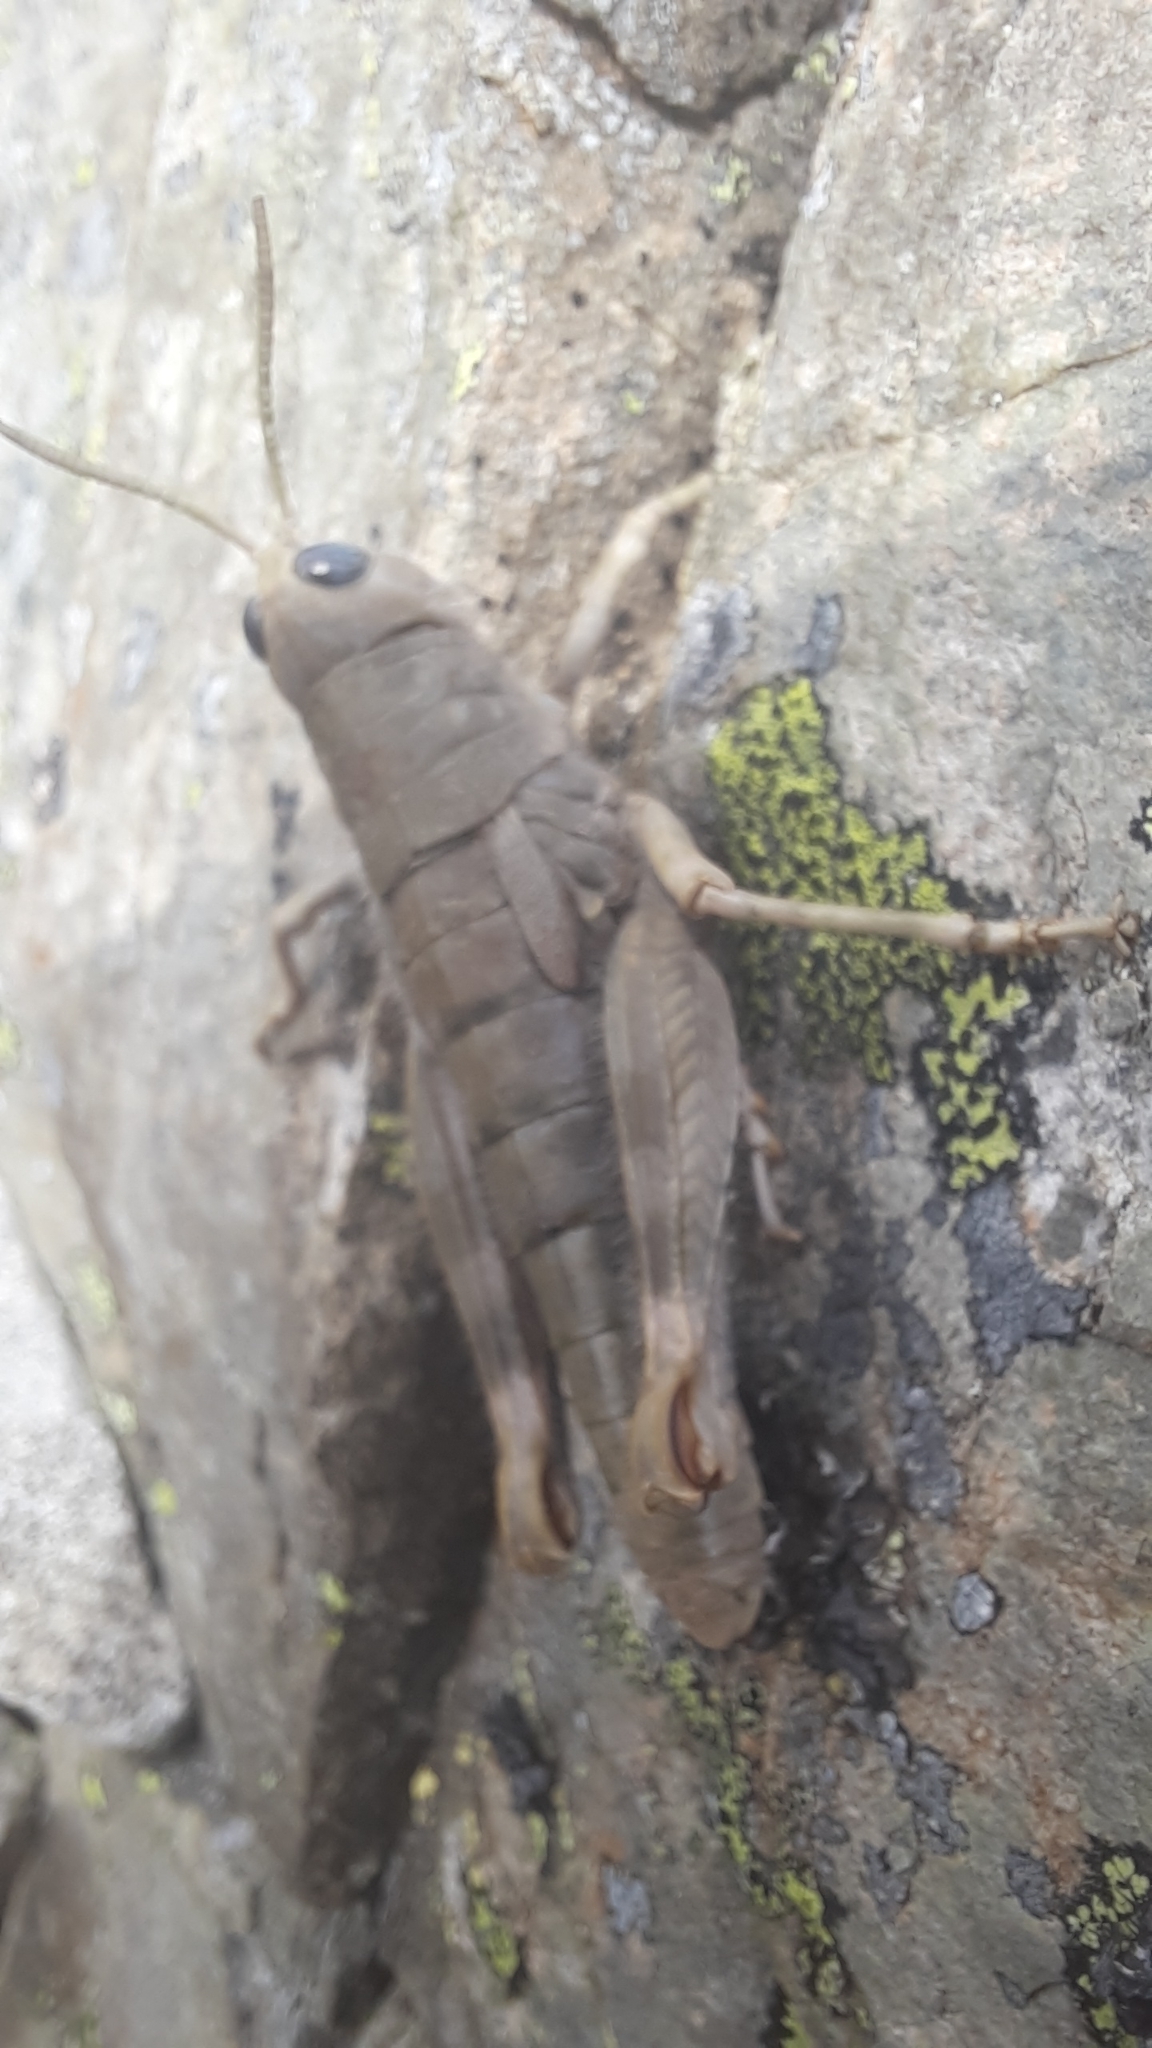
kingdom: Animalia
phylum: Arthropoda
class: Insecta
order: Orthoptera
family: Acrididae
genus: Sigaus
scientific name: Sigaus villosus
